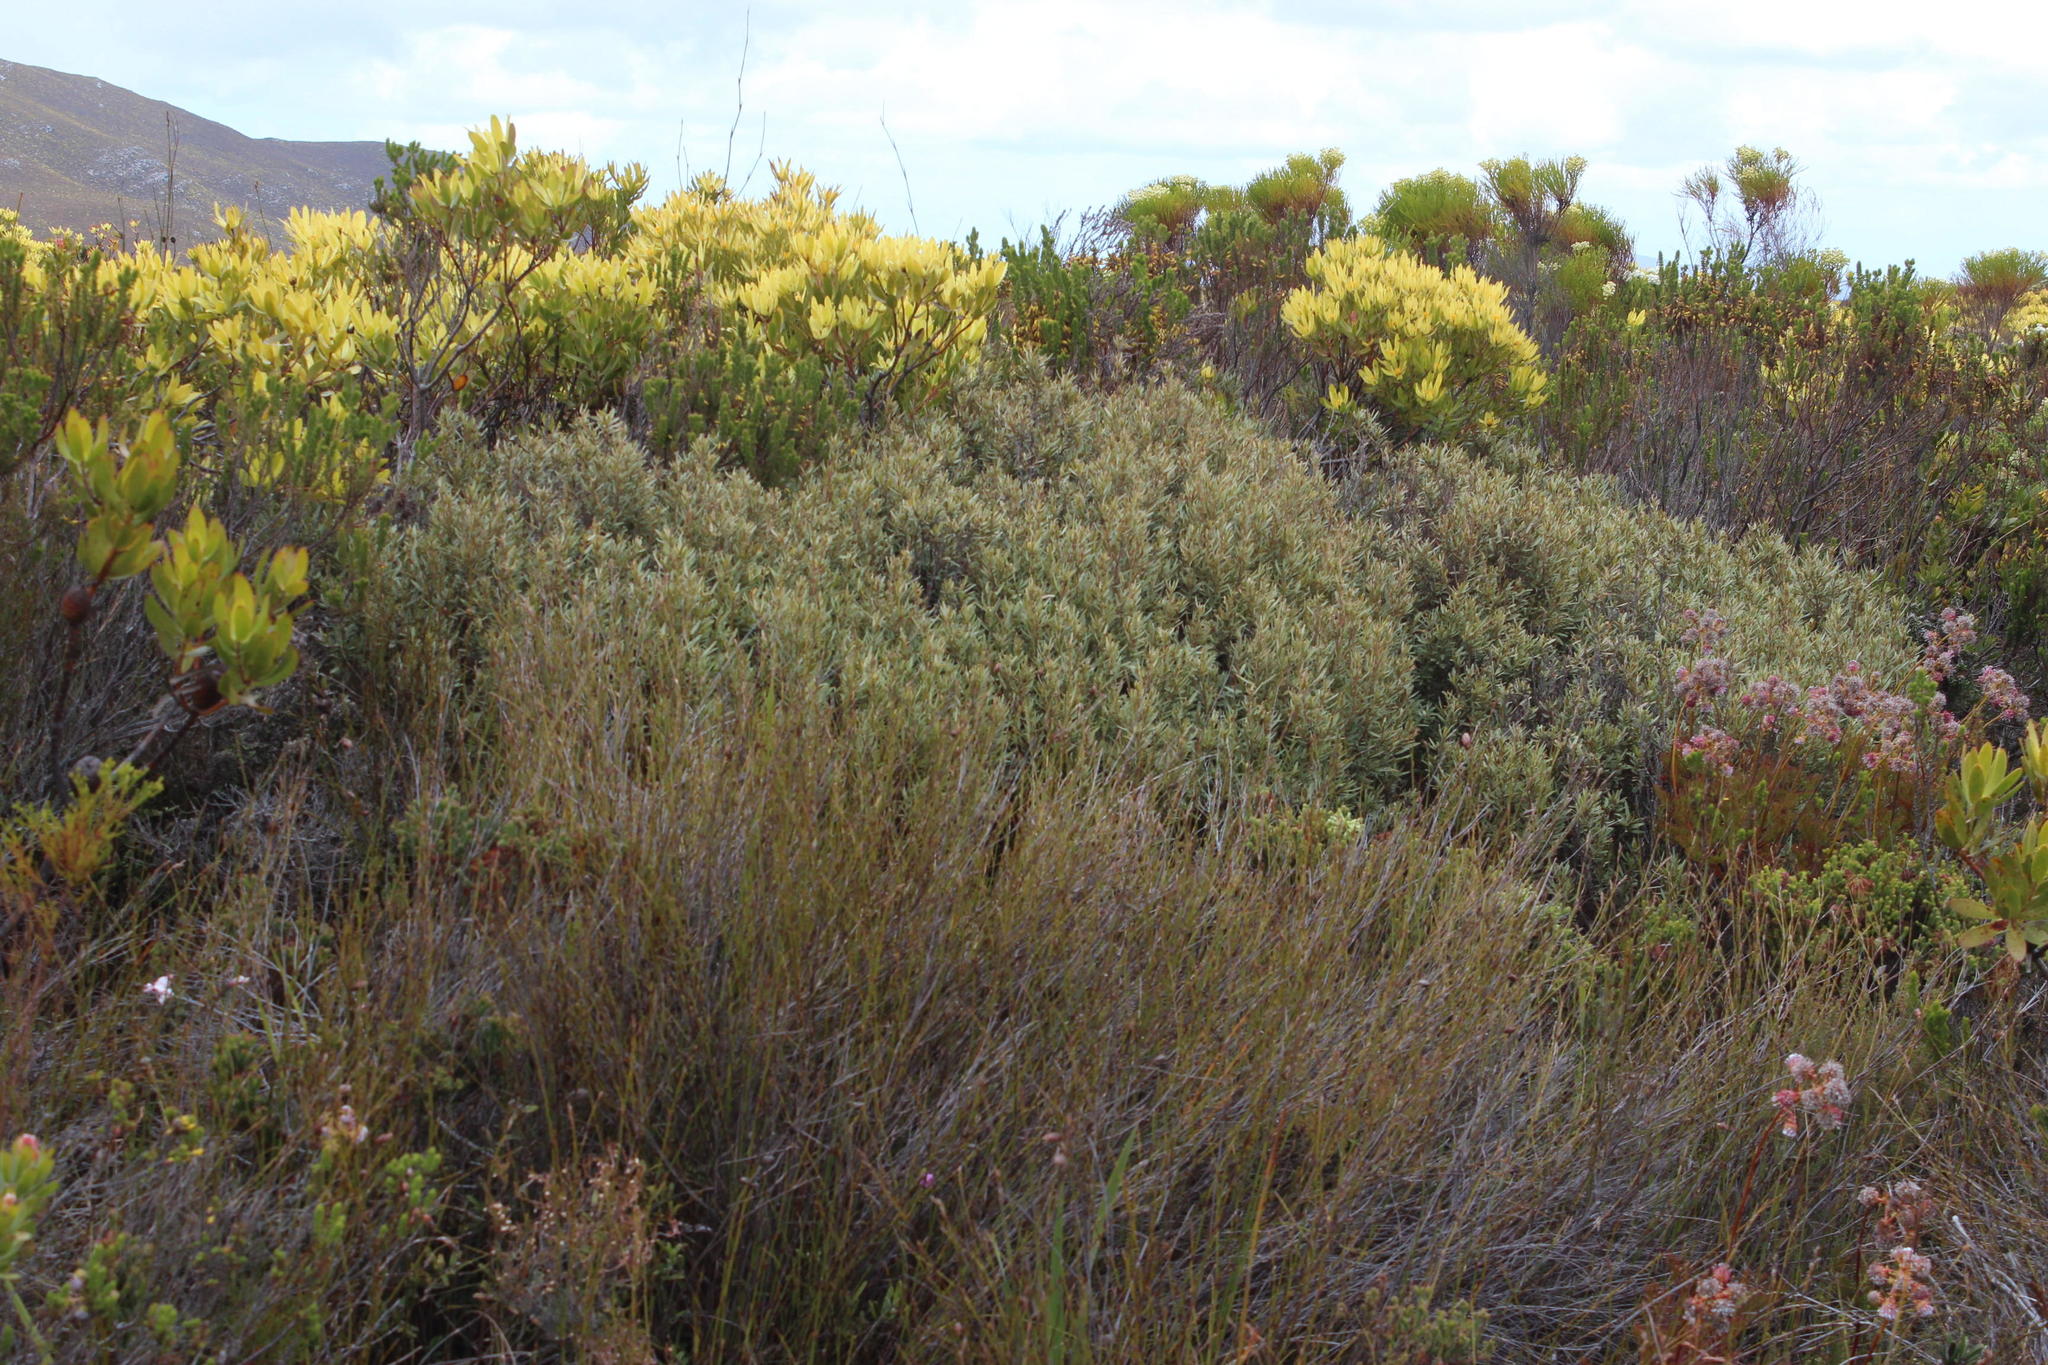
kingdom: Plantae
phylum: Tracheophyta
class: Magnoliopsida
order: Cornales
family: Grubbiaceae
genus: Grubbia
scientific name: Grubbia tomentosa
